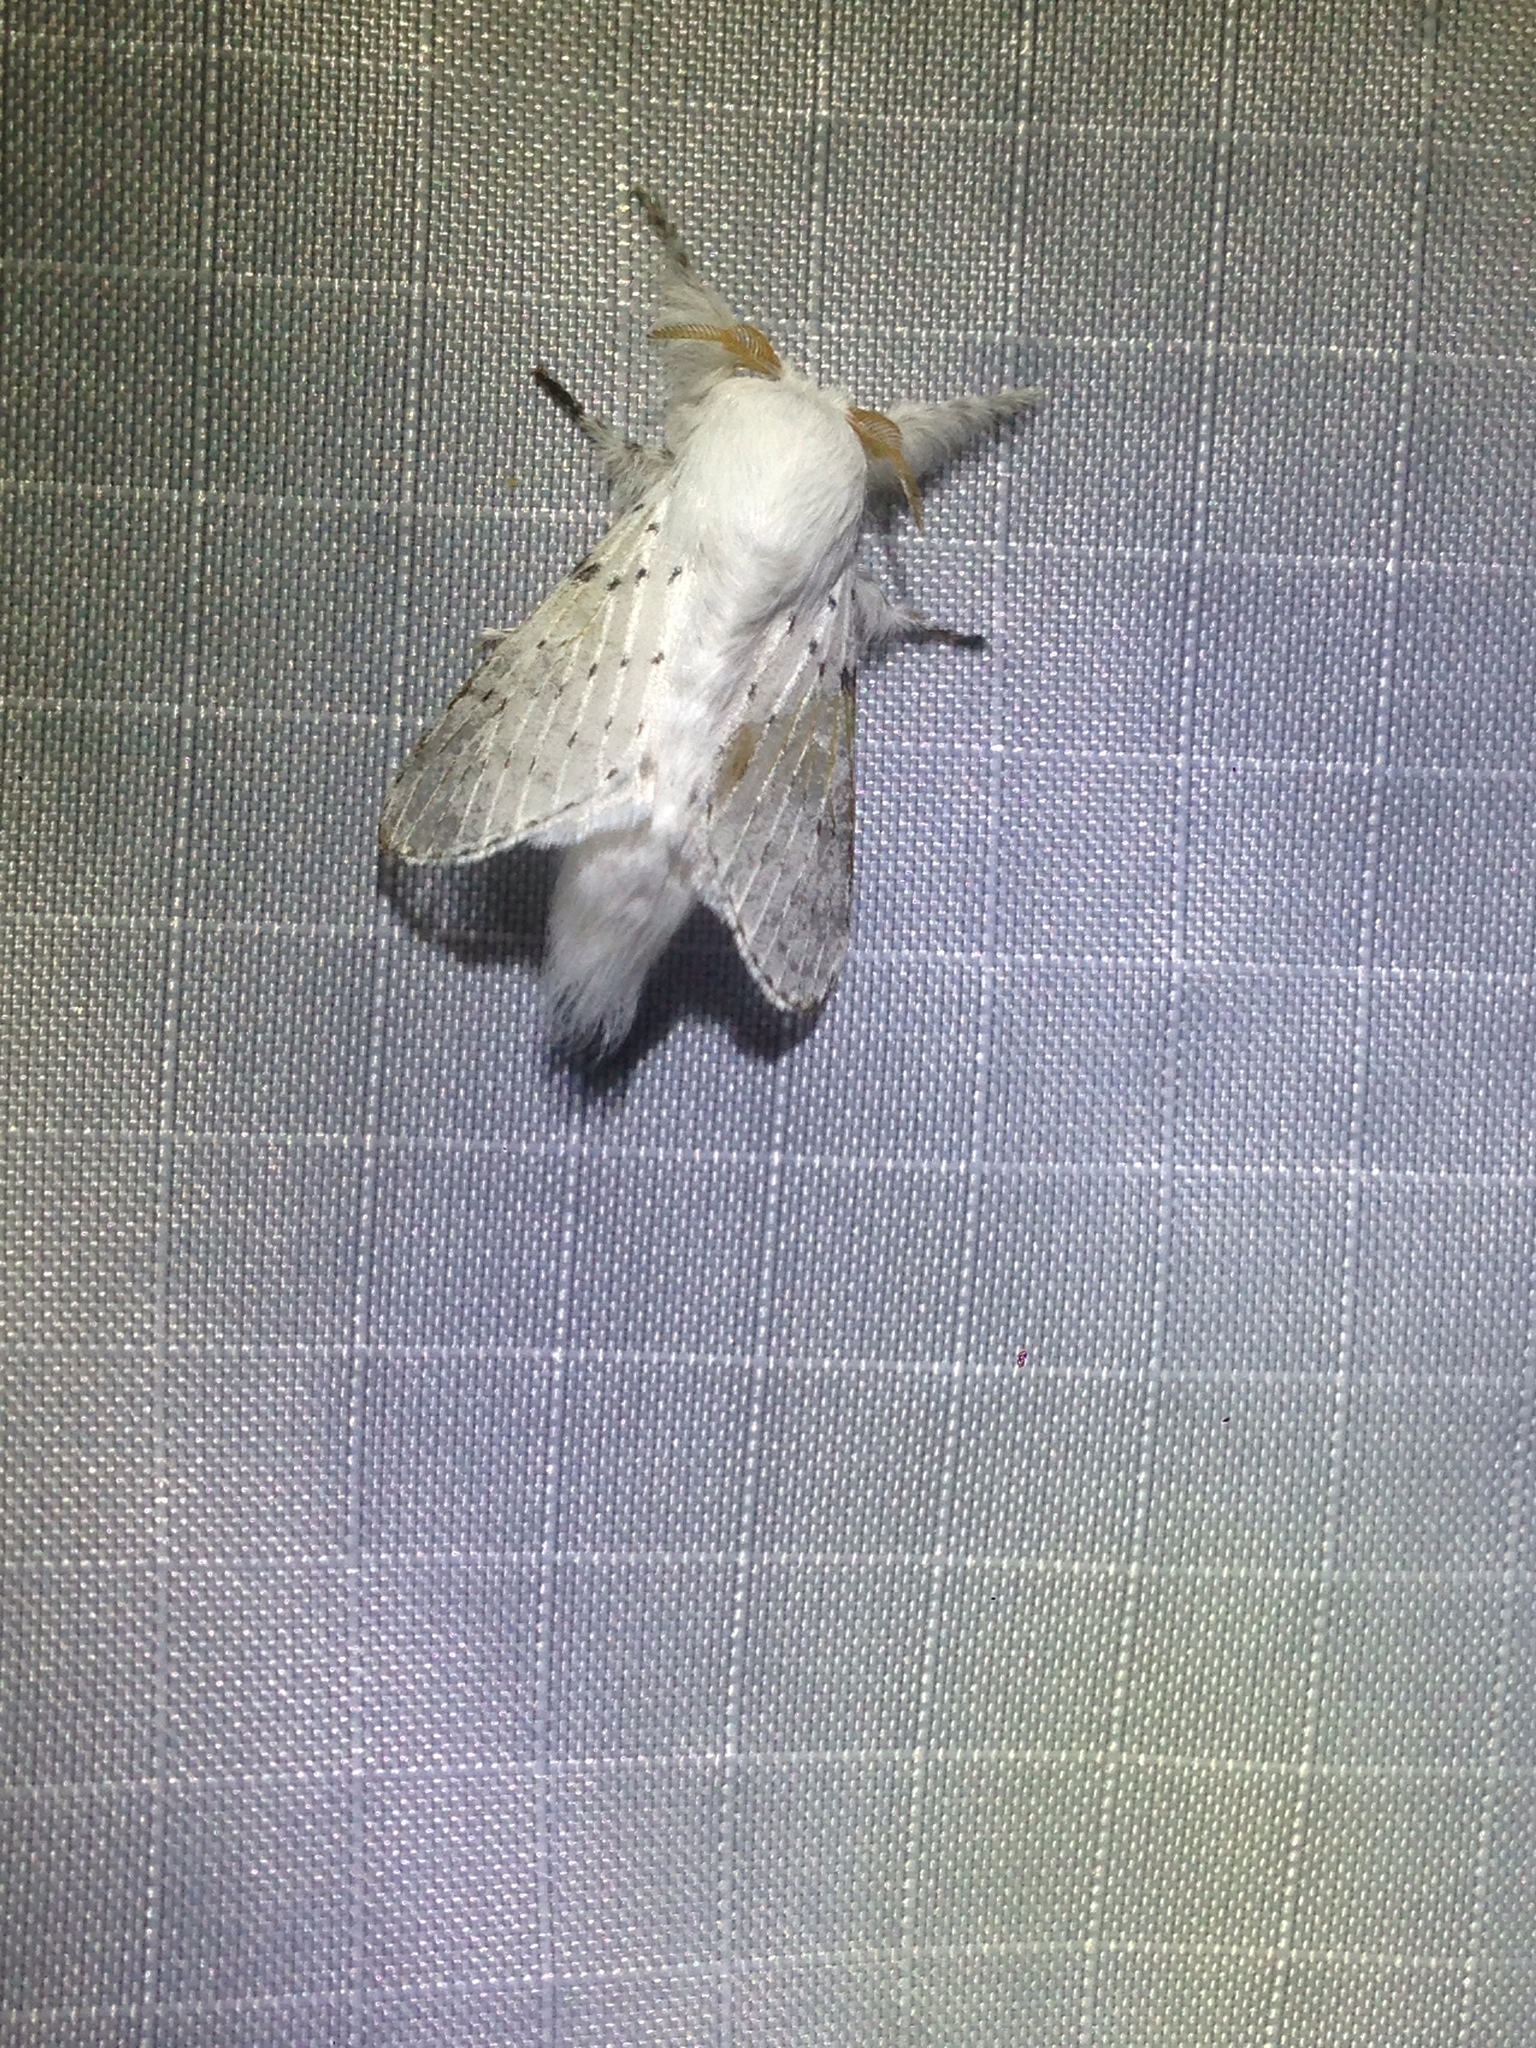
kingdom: Animalia
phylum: Arthropoda
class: Insecta
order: Lepidoptera
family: Lasiocampidae
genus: Artace
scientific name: Artace cribrarius
